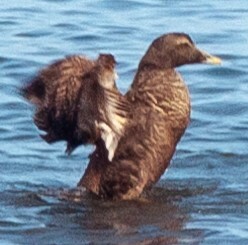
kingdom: Animalia
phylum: Chordata
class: Aves
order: Anseriformes
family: Anatidae
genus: Somateria
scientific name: Somateria mollissima
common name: Common eider
